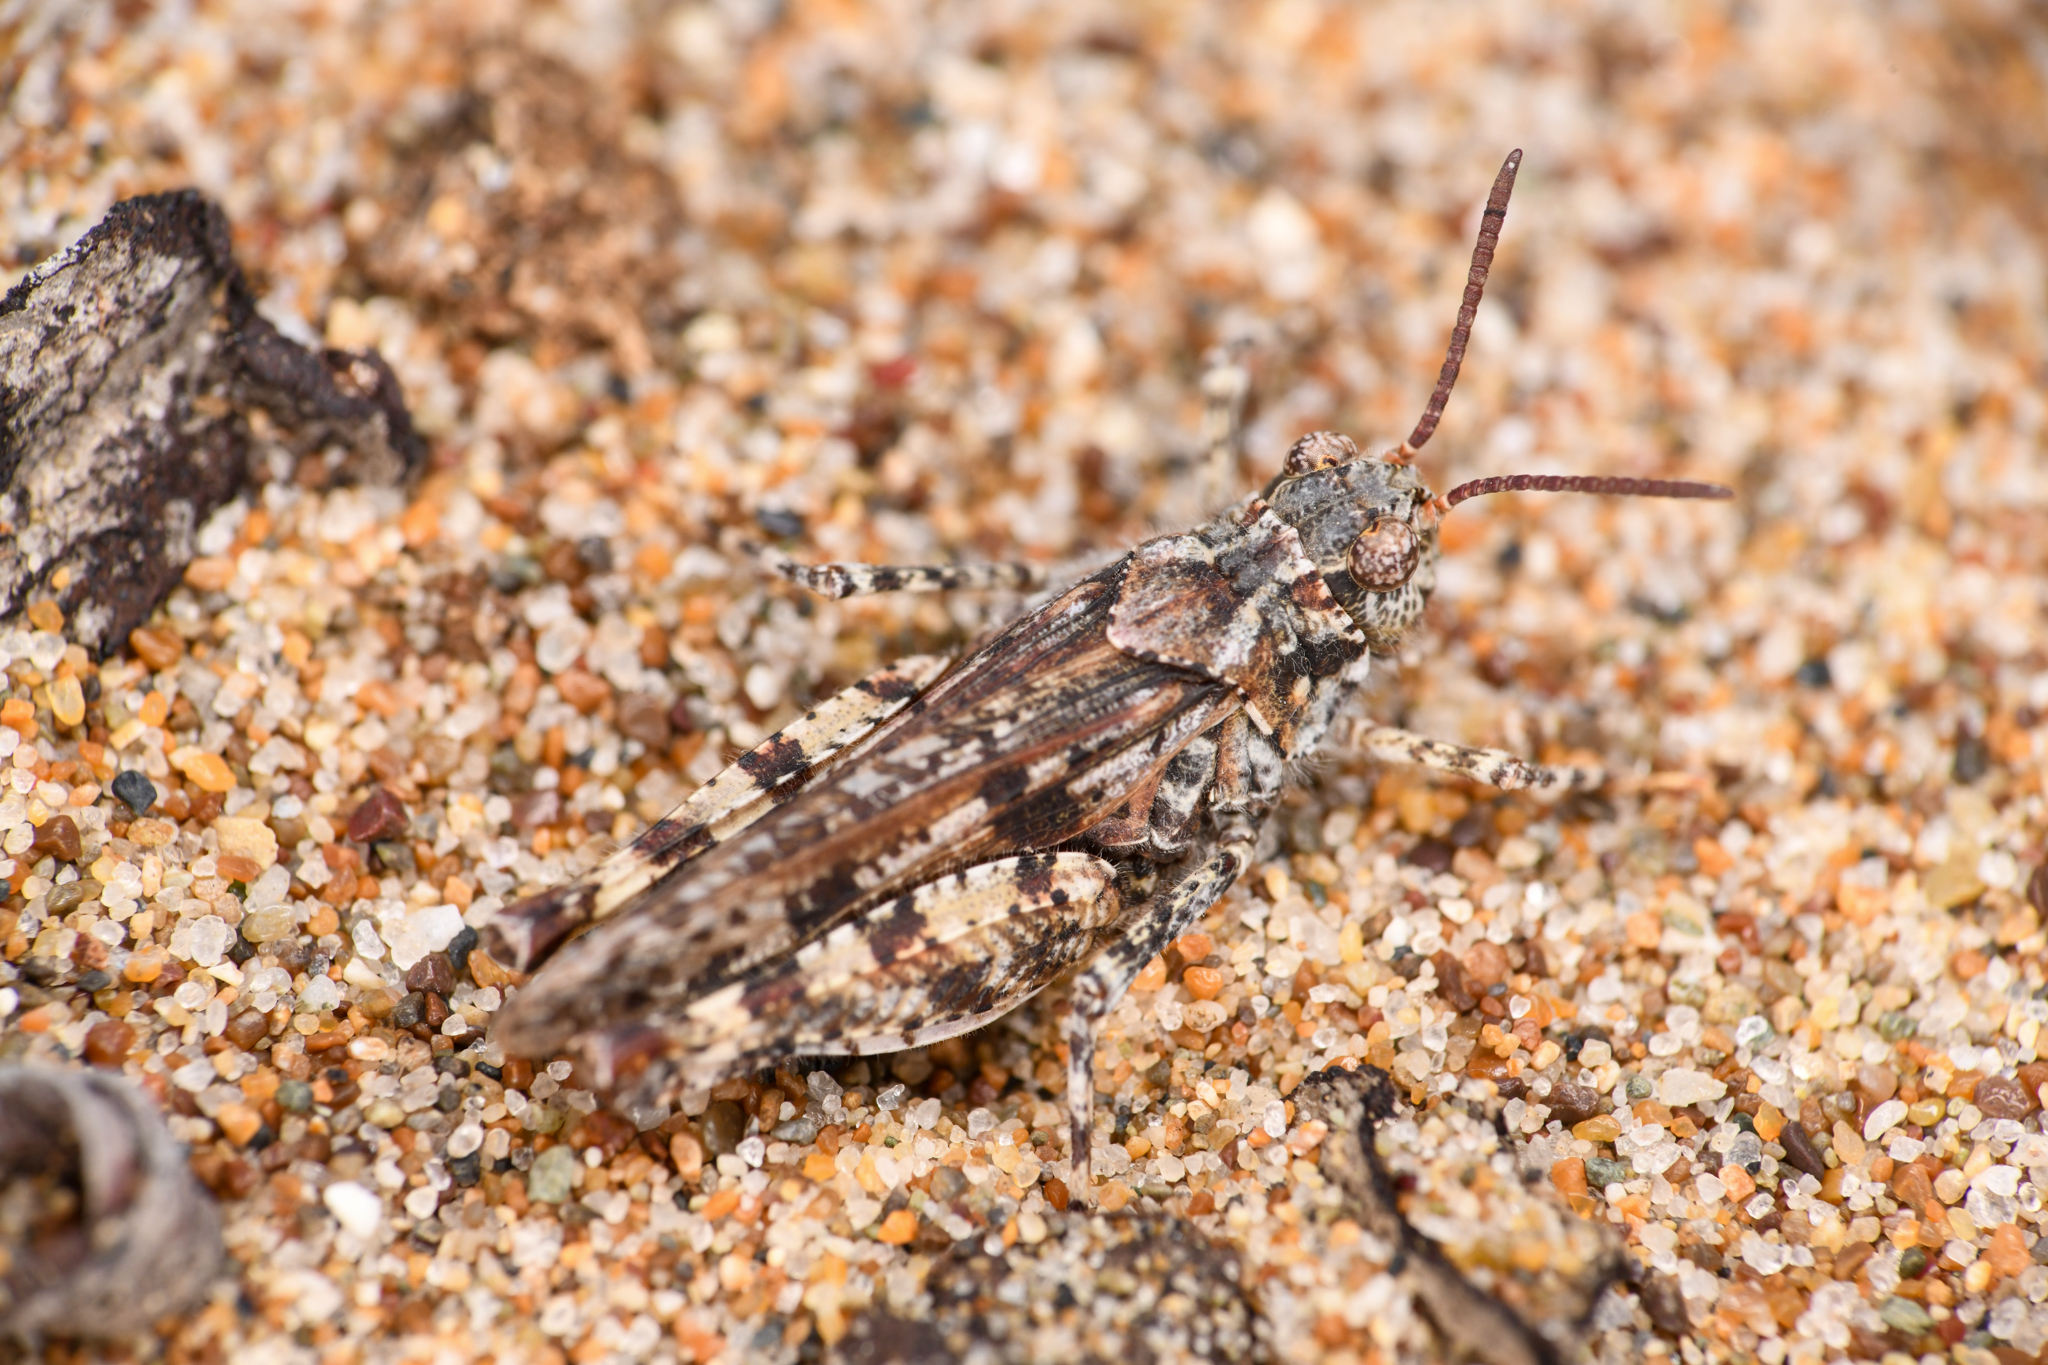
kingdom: Animalia
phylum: Arthropoda
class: Insecta
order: Orthoptera
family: Acrididae
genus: Microtes
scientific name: Microtes pogonata
